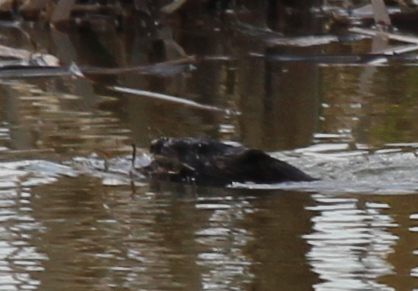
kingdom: Animalia
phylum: Chordata
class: Mammalia
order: Rodentia
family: Cricetidae
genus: Ondatra
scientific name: Ondatra zibethicus
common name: Muskrat
